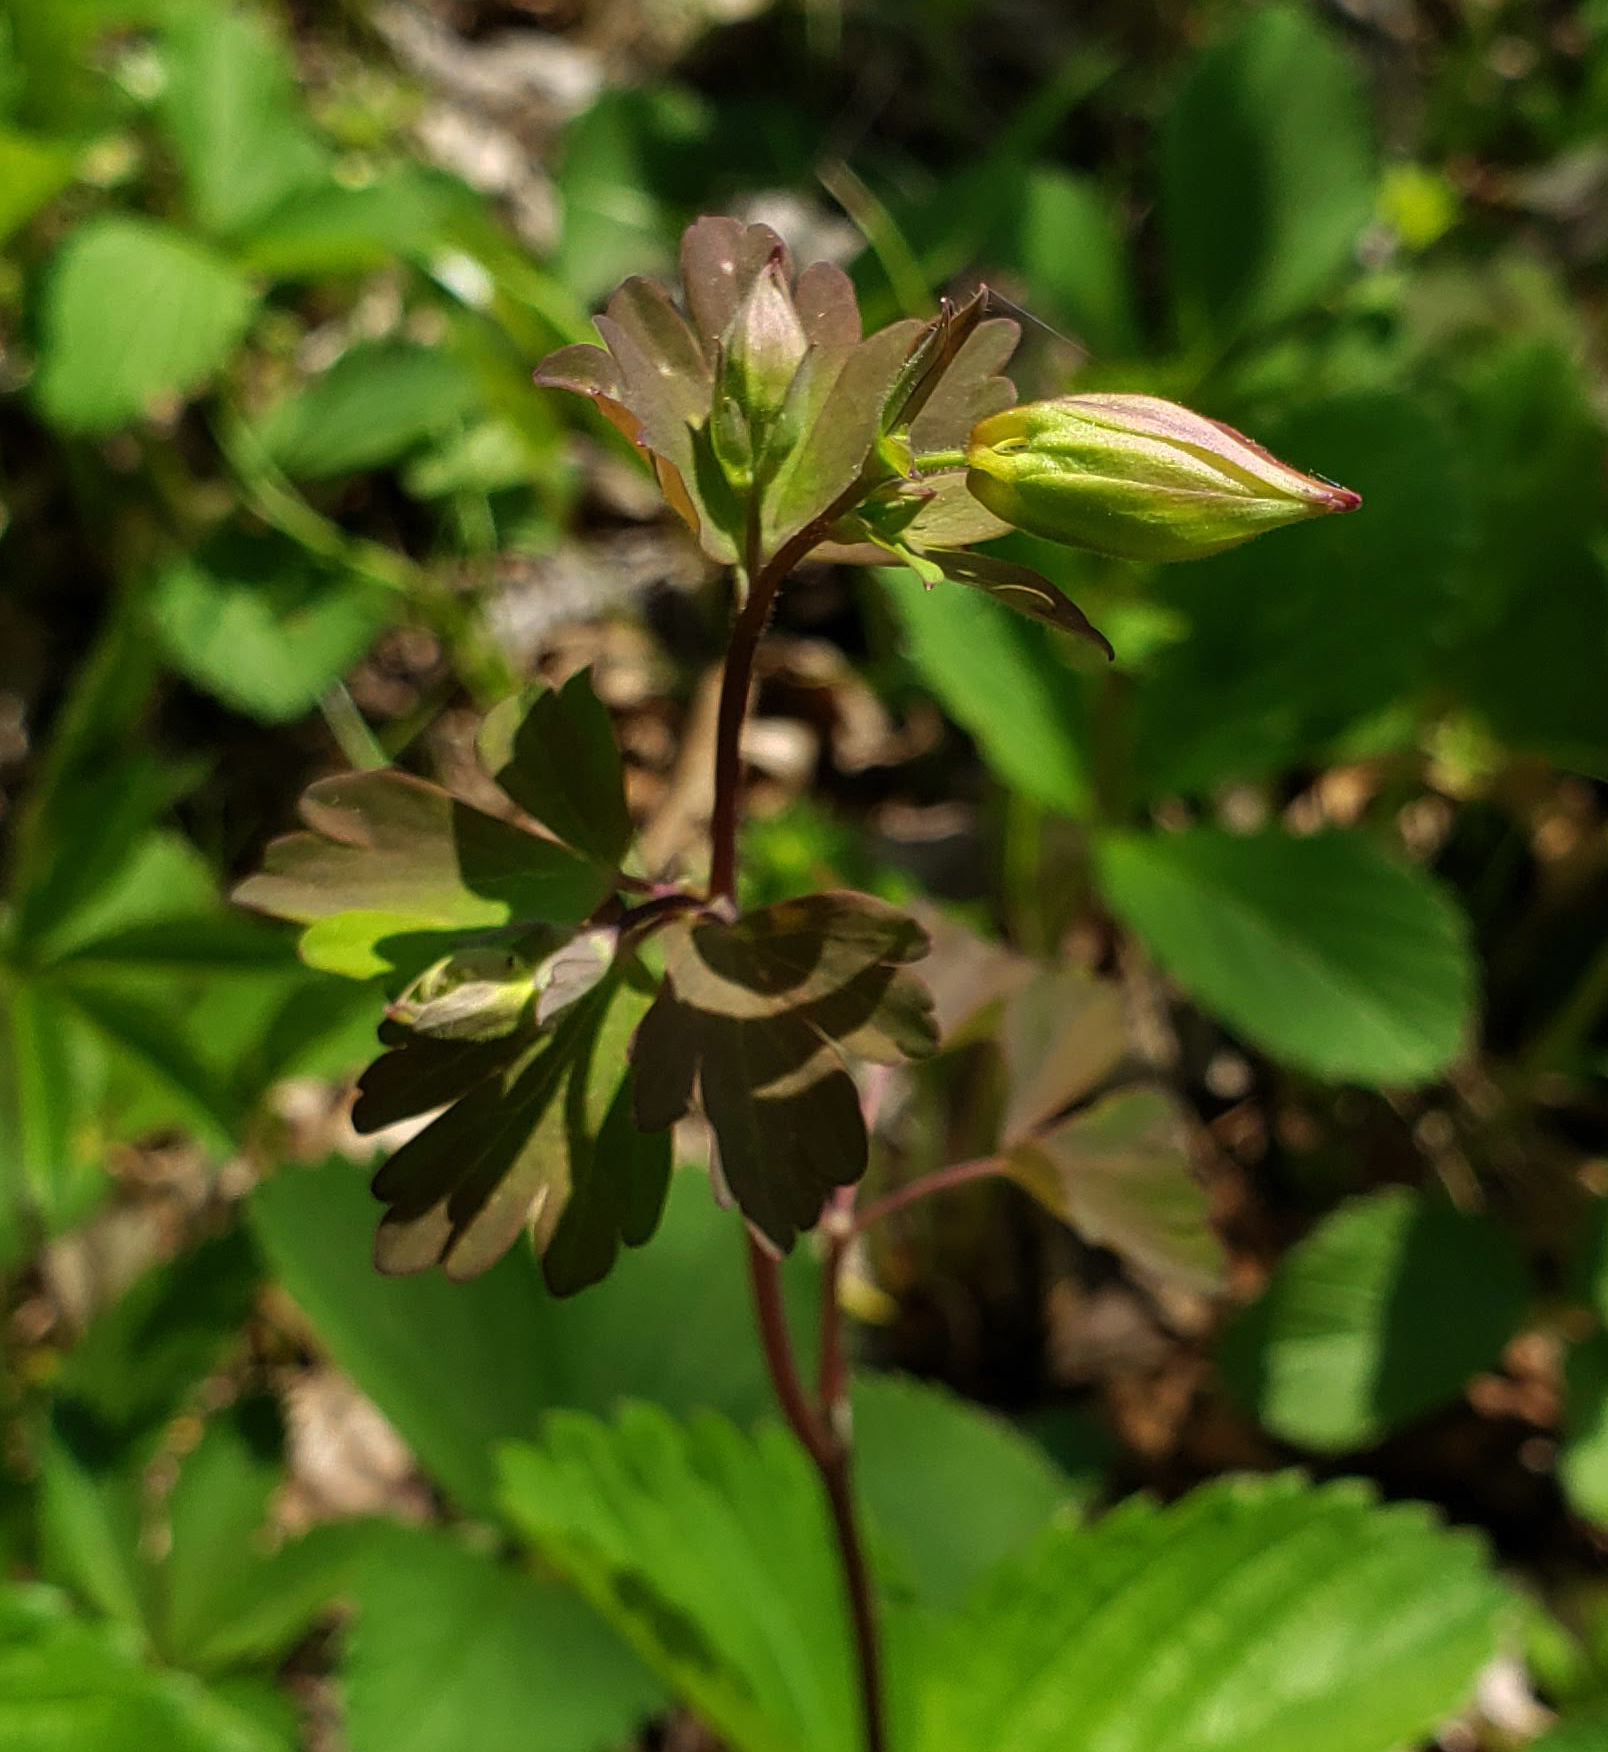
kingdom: Plantae
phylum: Tracheophyta
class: Magnoliopsida
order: Ranunculales
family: Ranunculaceae
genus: Aquilegia
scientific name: Aquilegia canadensis
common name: American columbine
